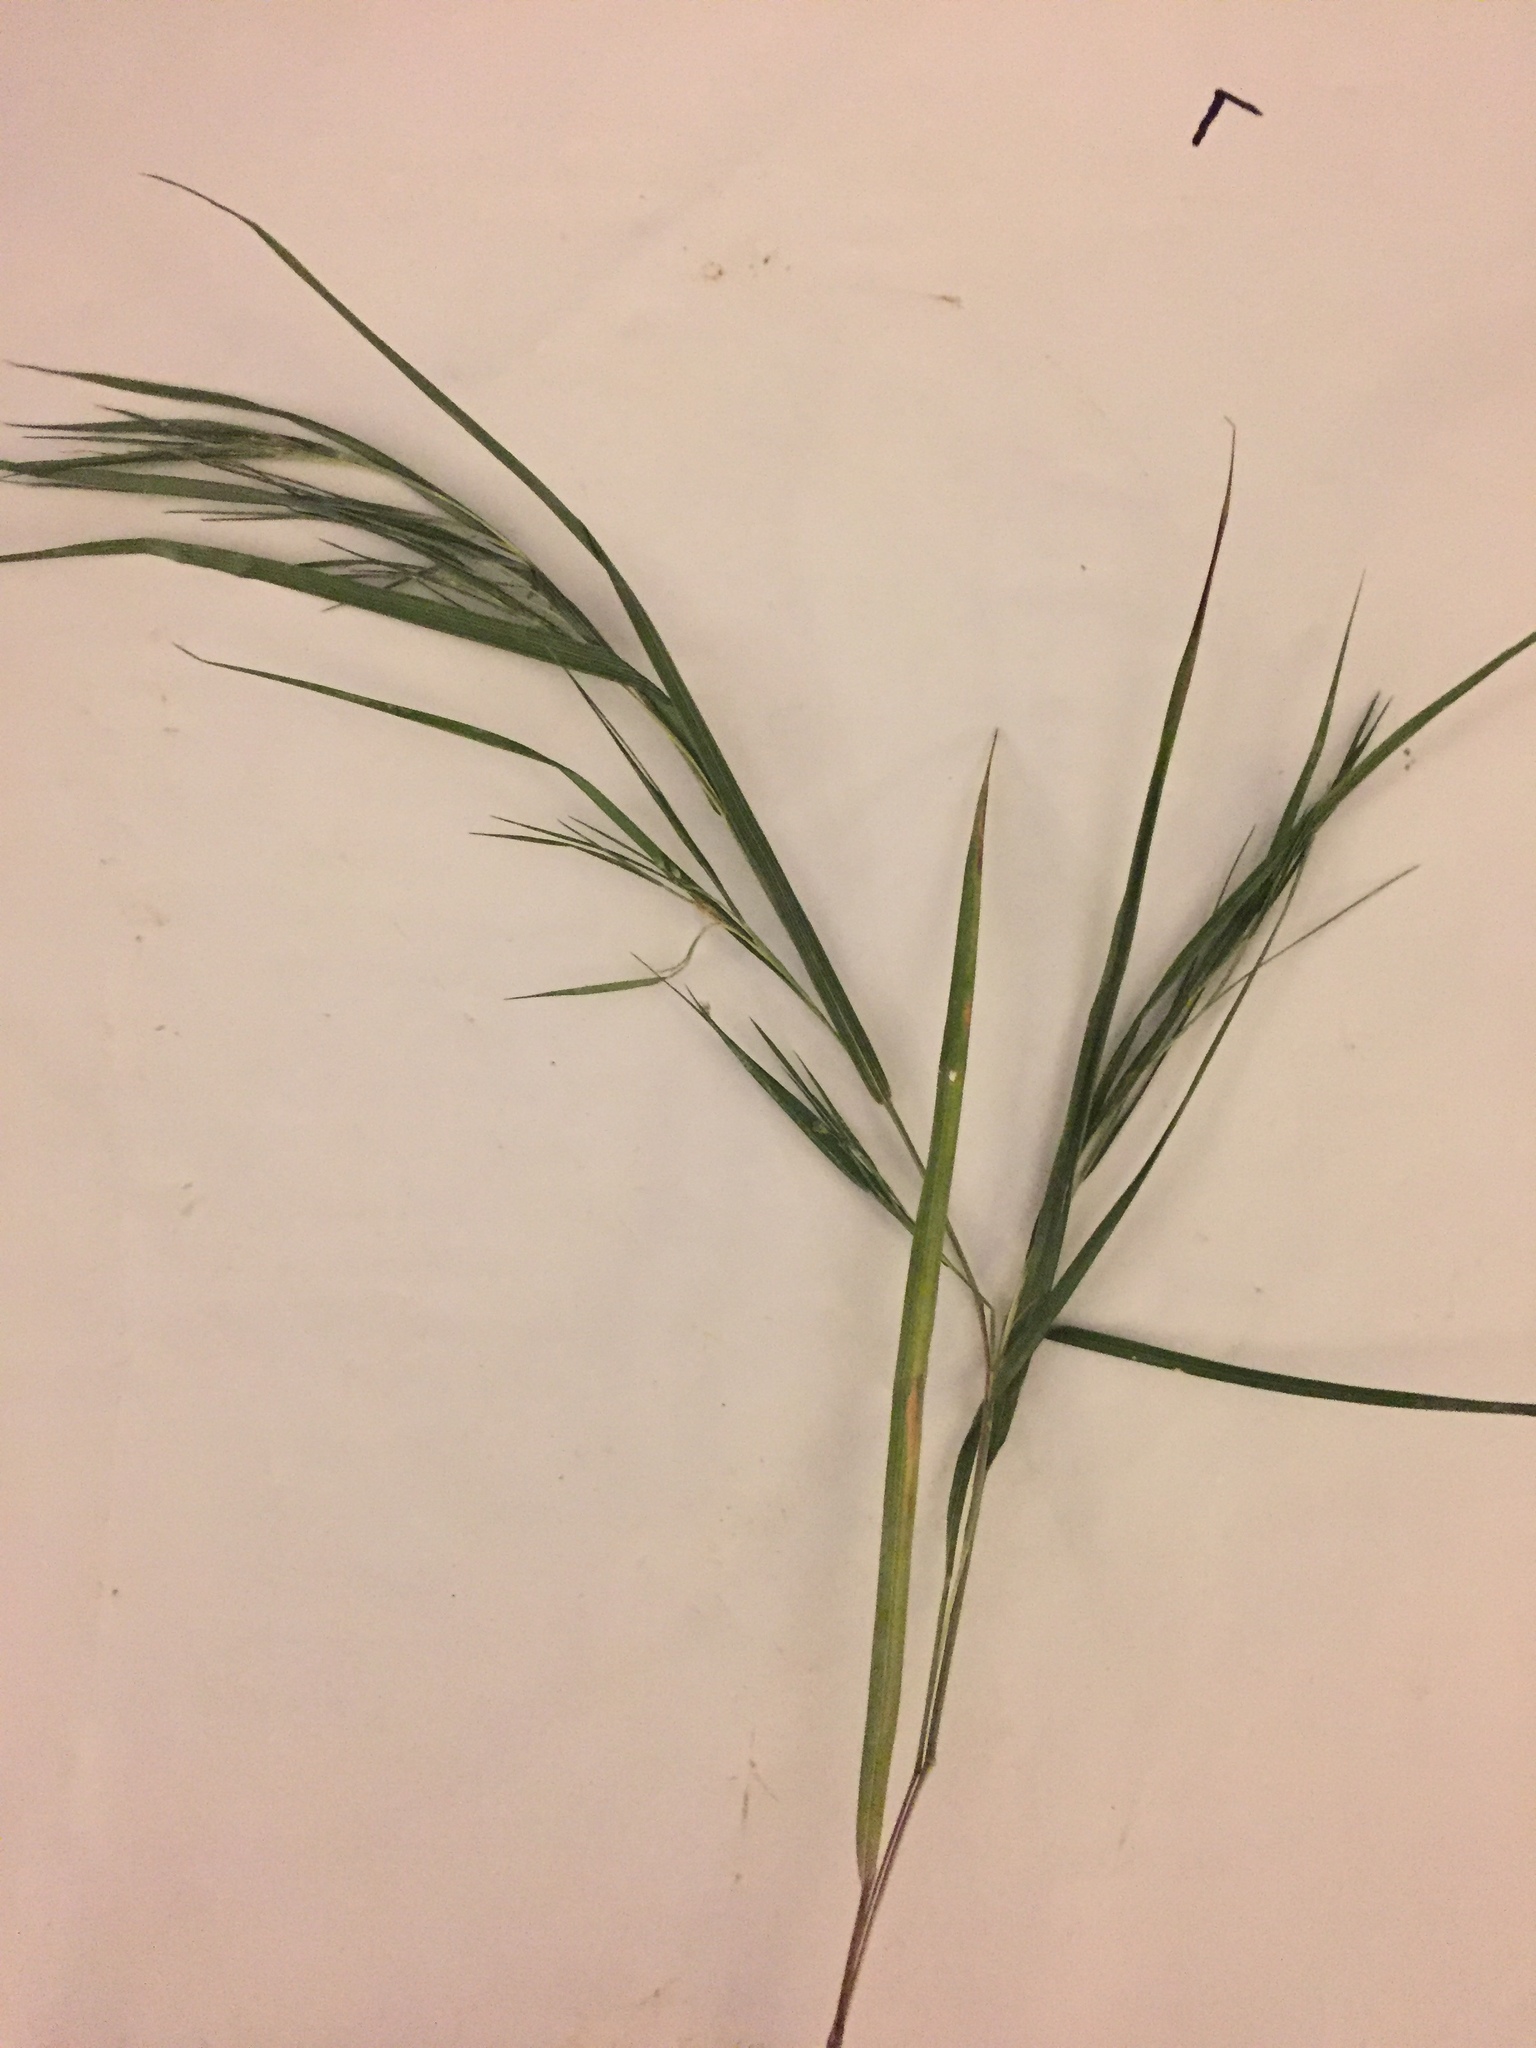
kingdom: Plantae
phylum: Tracheophyta
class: Liliopsida
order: Poales
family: Poaceae
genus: Dichanthelium
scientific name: Dichanthelium angustifolium
